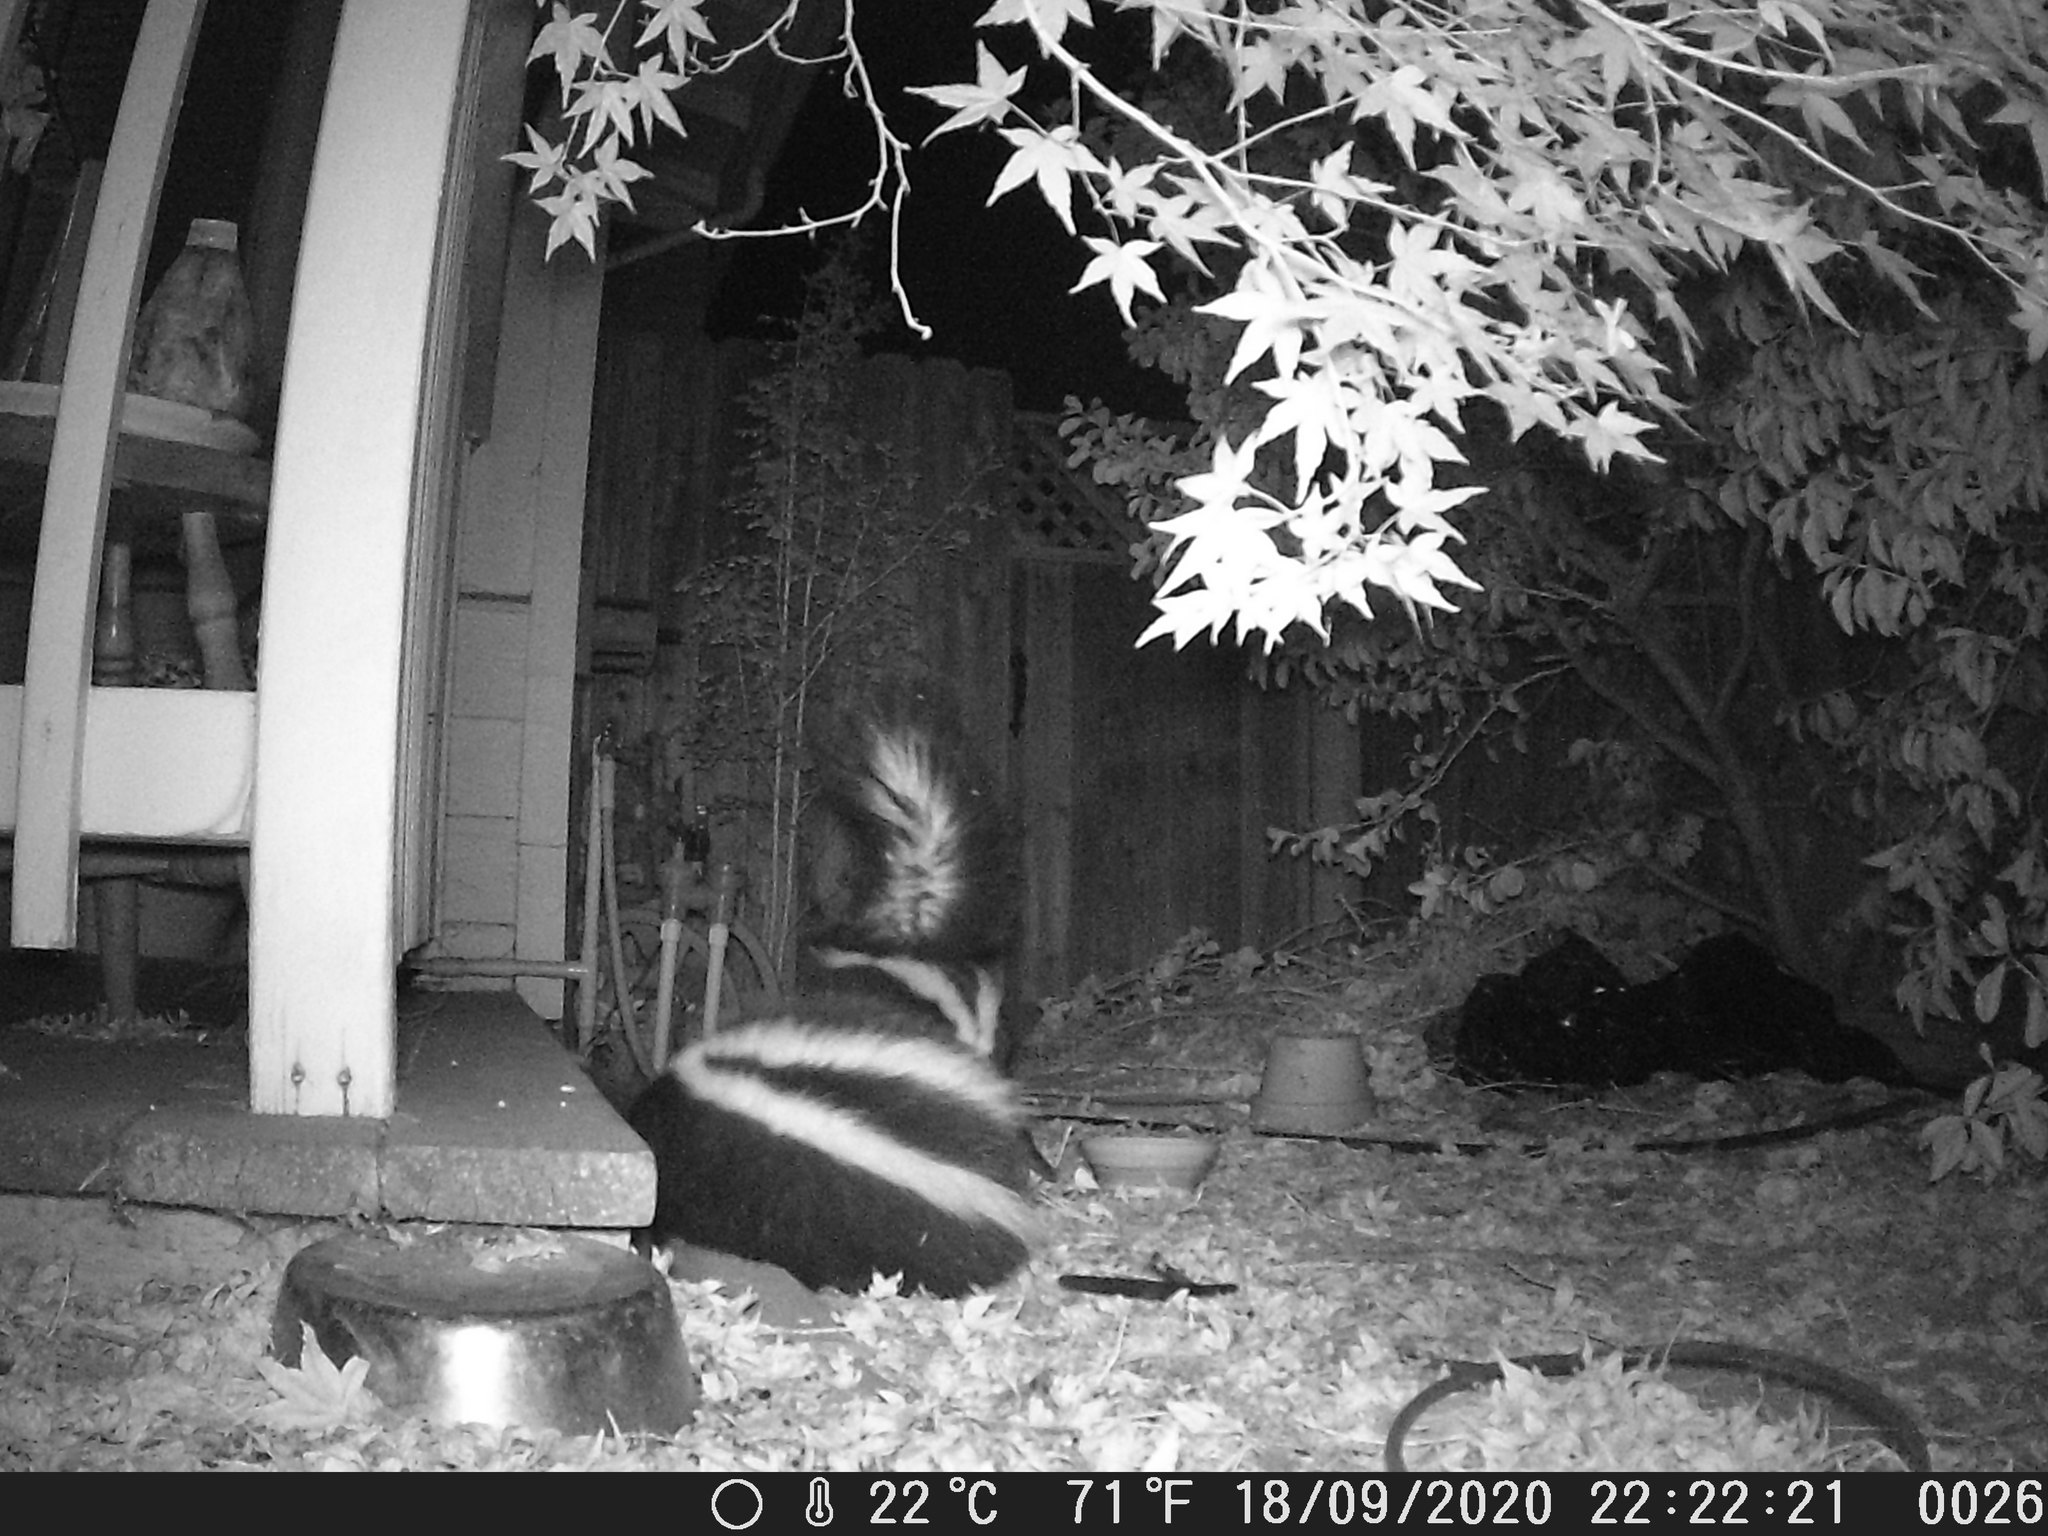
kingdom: Animalia
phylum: Chordata
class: Mammalia
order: Carnivora
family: Mephitidae
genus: Mephitis
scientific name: Mephitis mephitis
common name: Striped skunk
